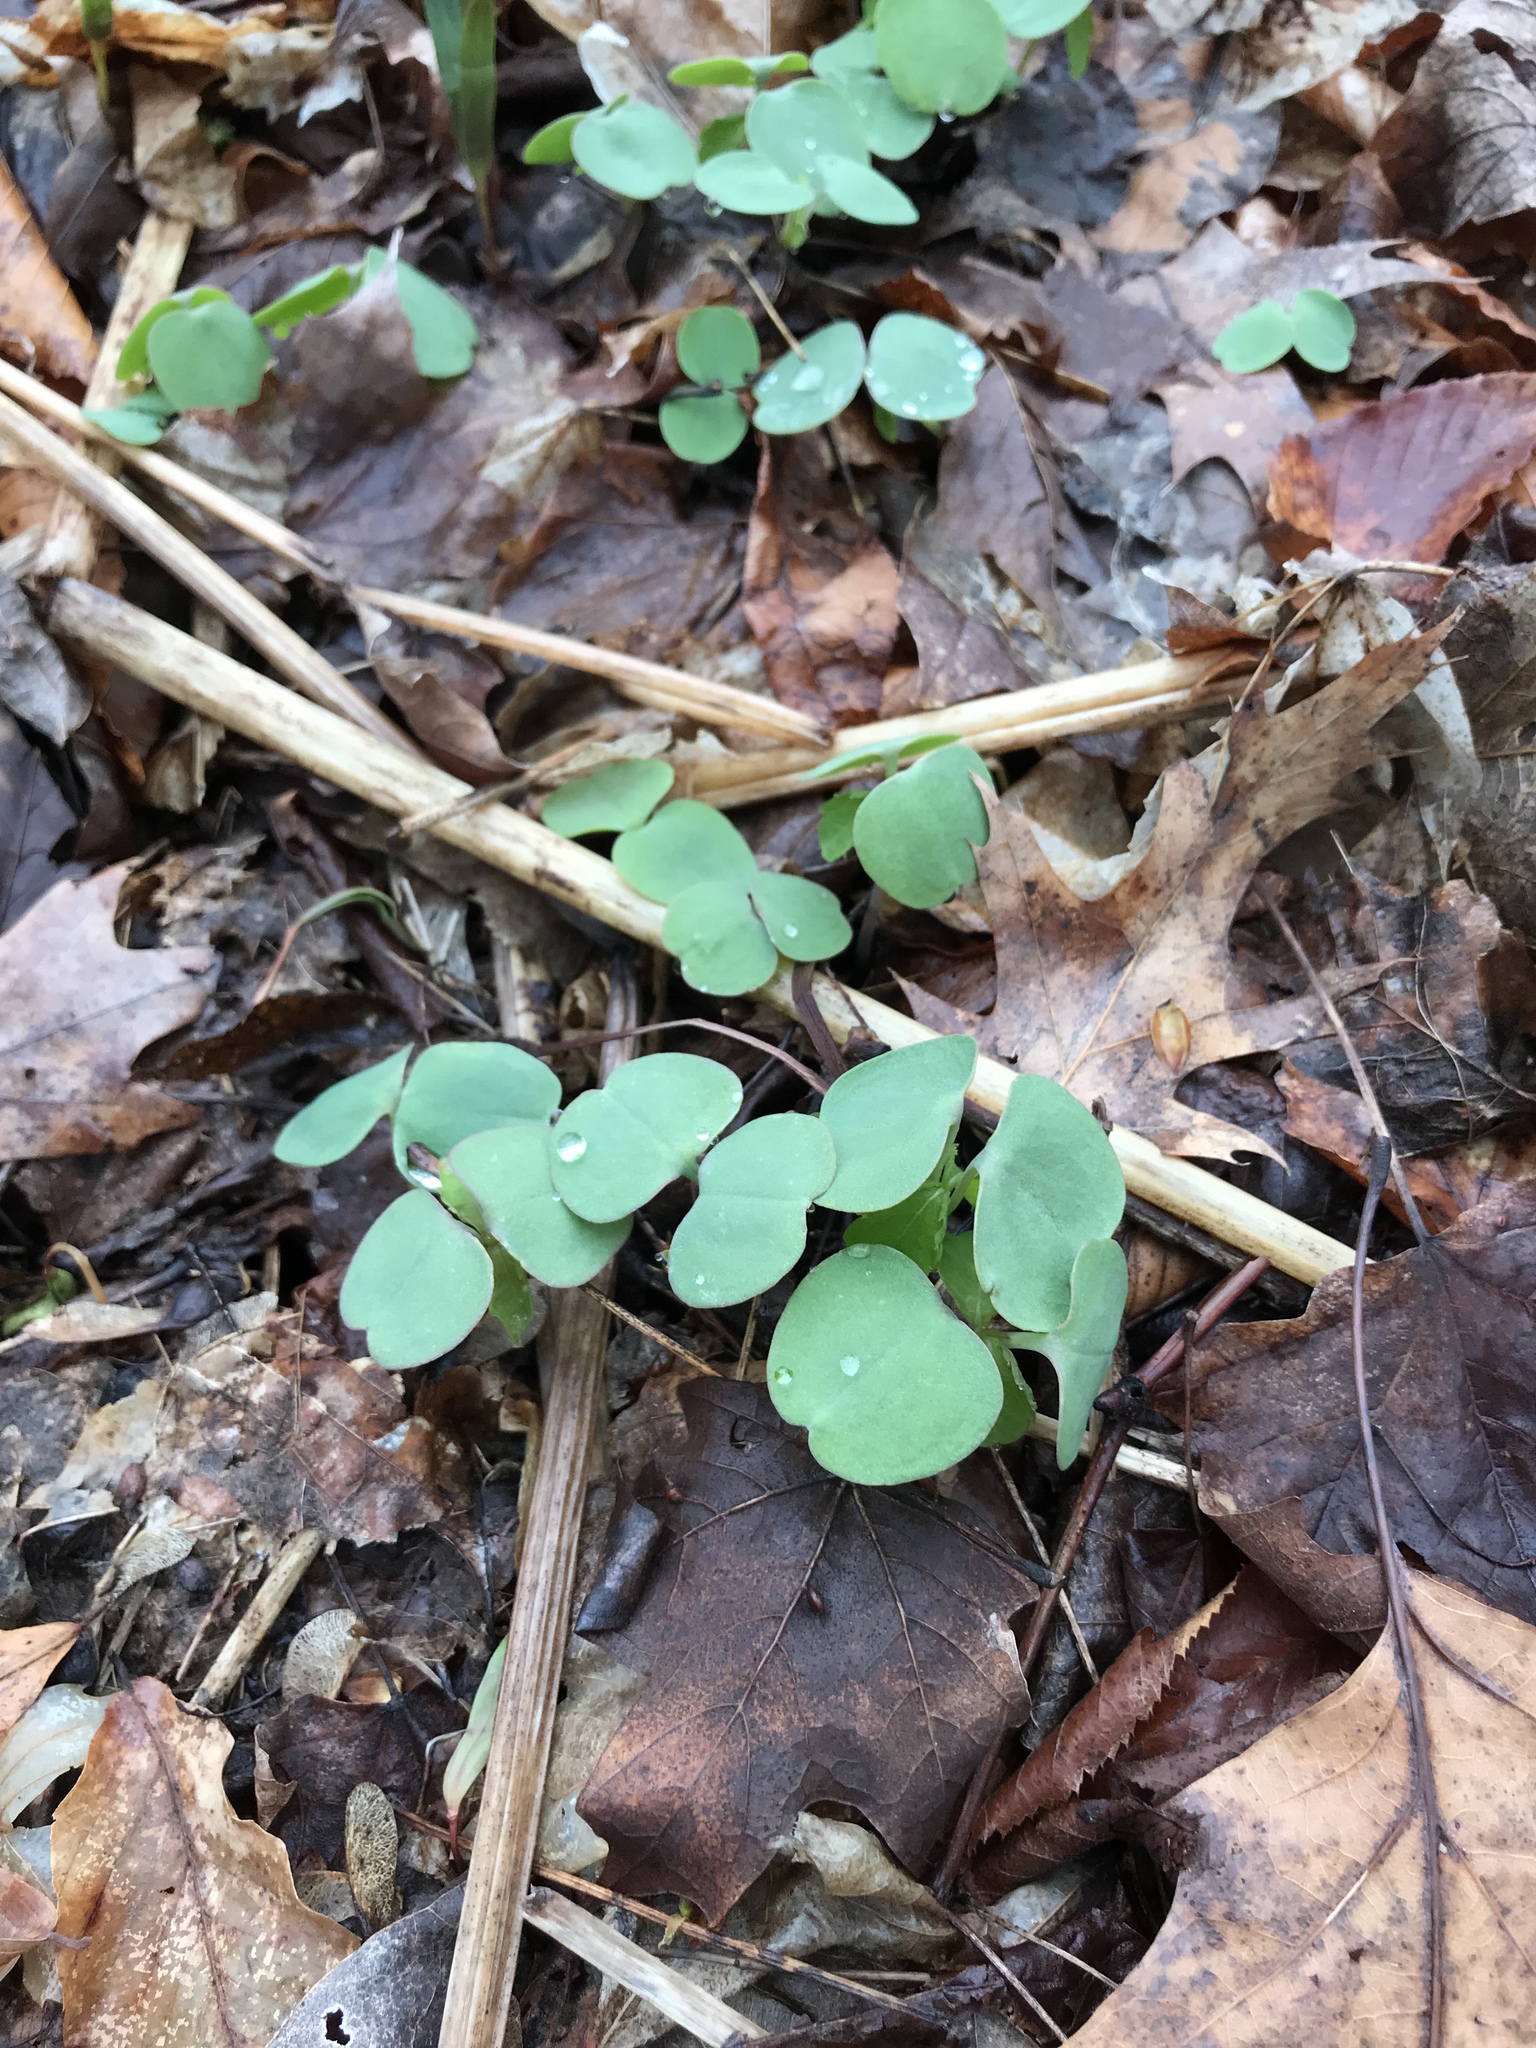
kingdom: Plantae
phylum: Tracheophyta
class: Magnoliopsida
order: Ericales
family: Balsaminaceae
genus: Impatiens
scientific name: Impatiens capensis
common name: Orange balsam
